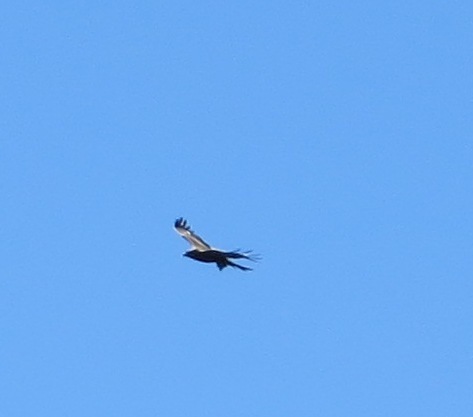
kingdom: Animalia
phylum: Chordata
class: Aves
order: Accipitriformes
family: Accipitridae
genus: Milvus
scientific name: Milvus migrans
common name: Black kite
